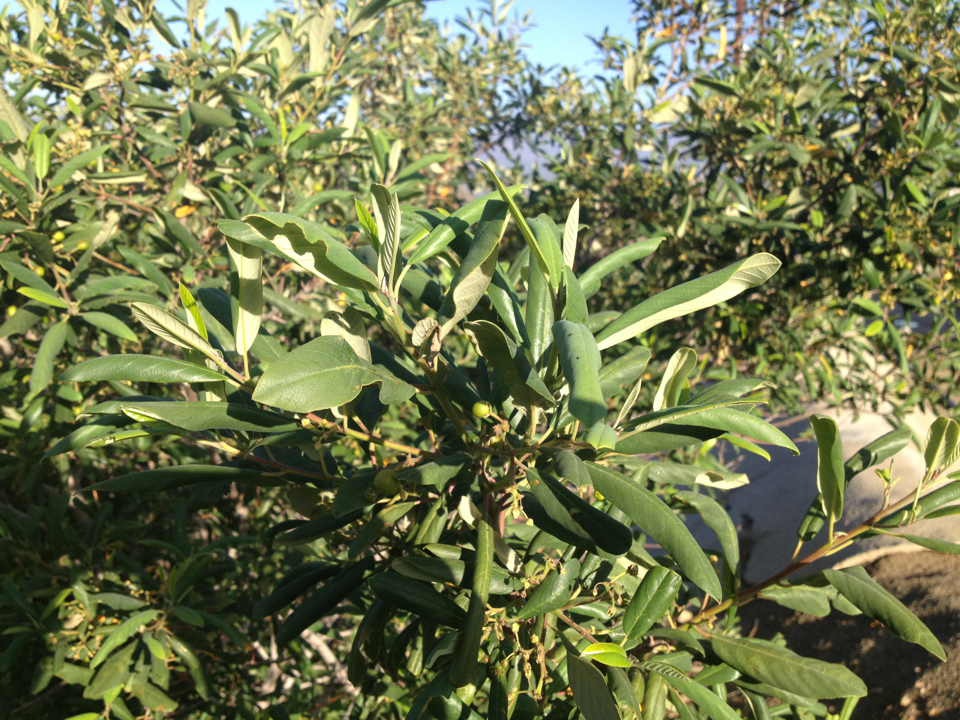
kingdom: Plantae
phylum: Tracheophyta
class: Magnoliopsida
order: Rosales
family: Rhamnaceae
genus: Frangula
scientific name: Frangula californica
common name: California buckthorn
